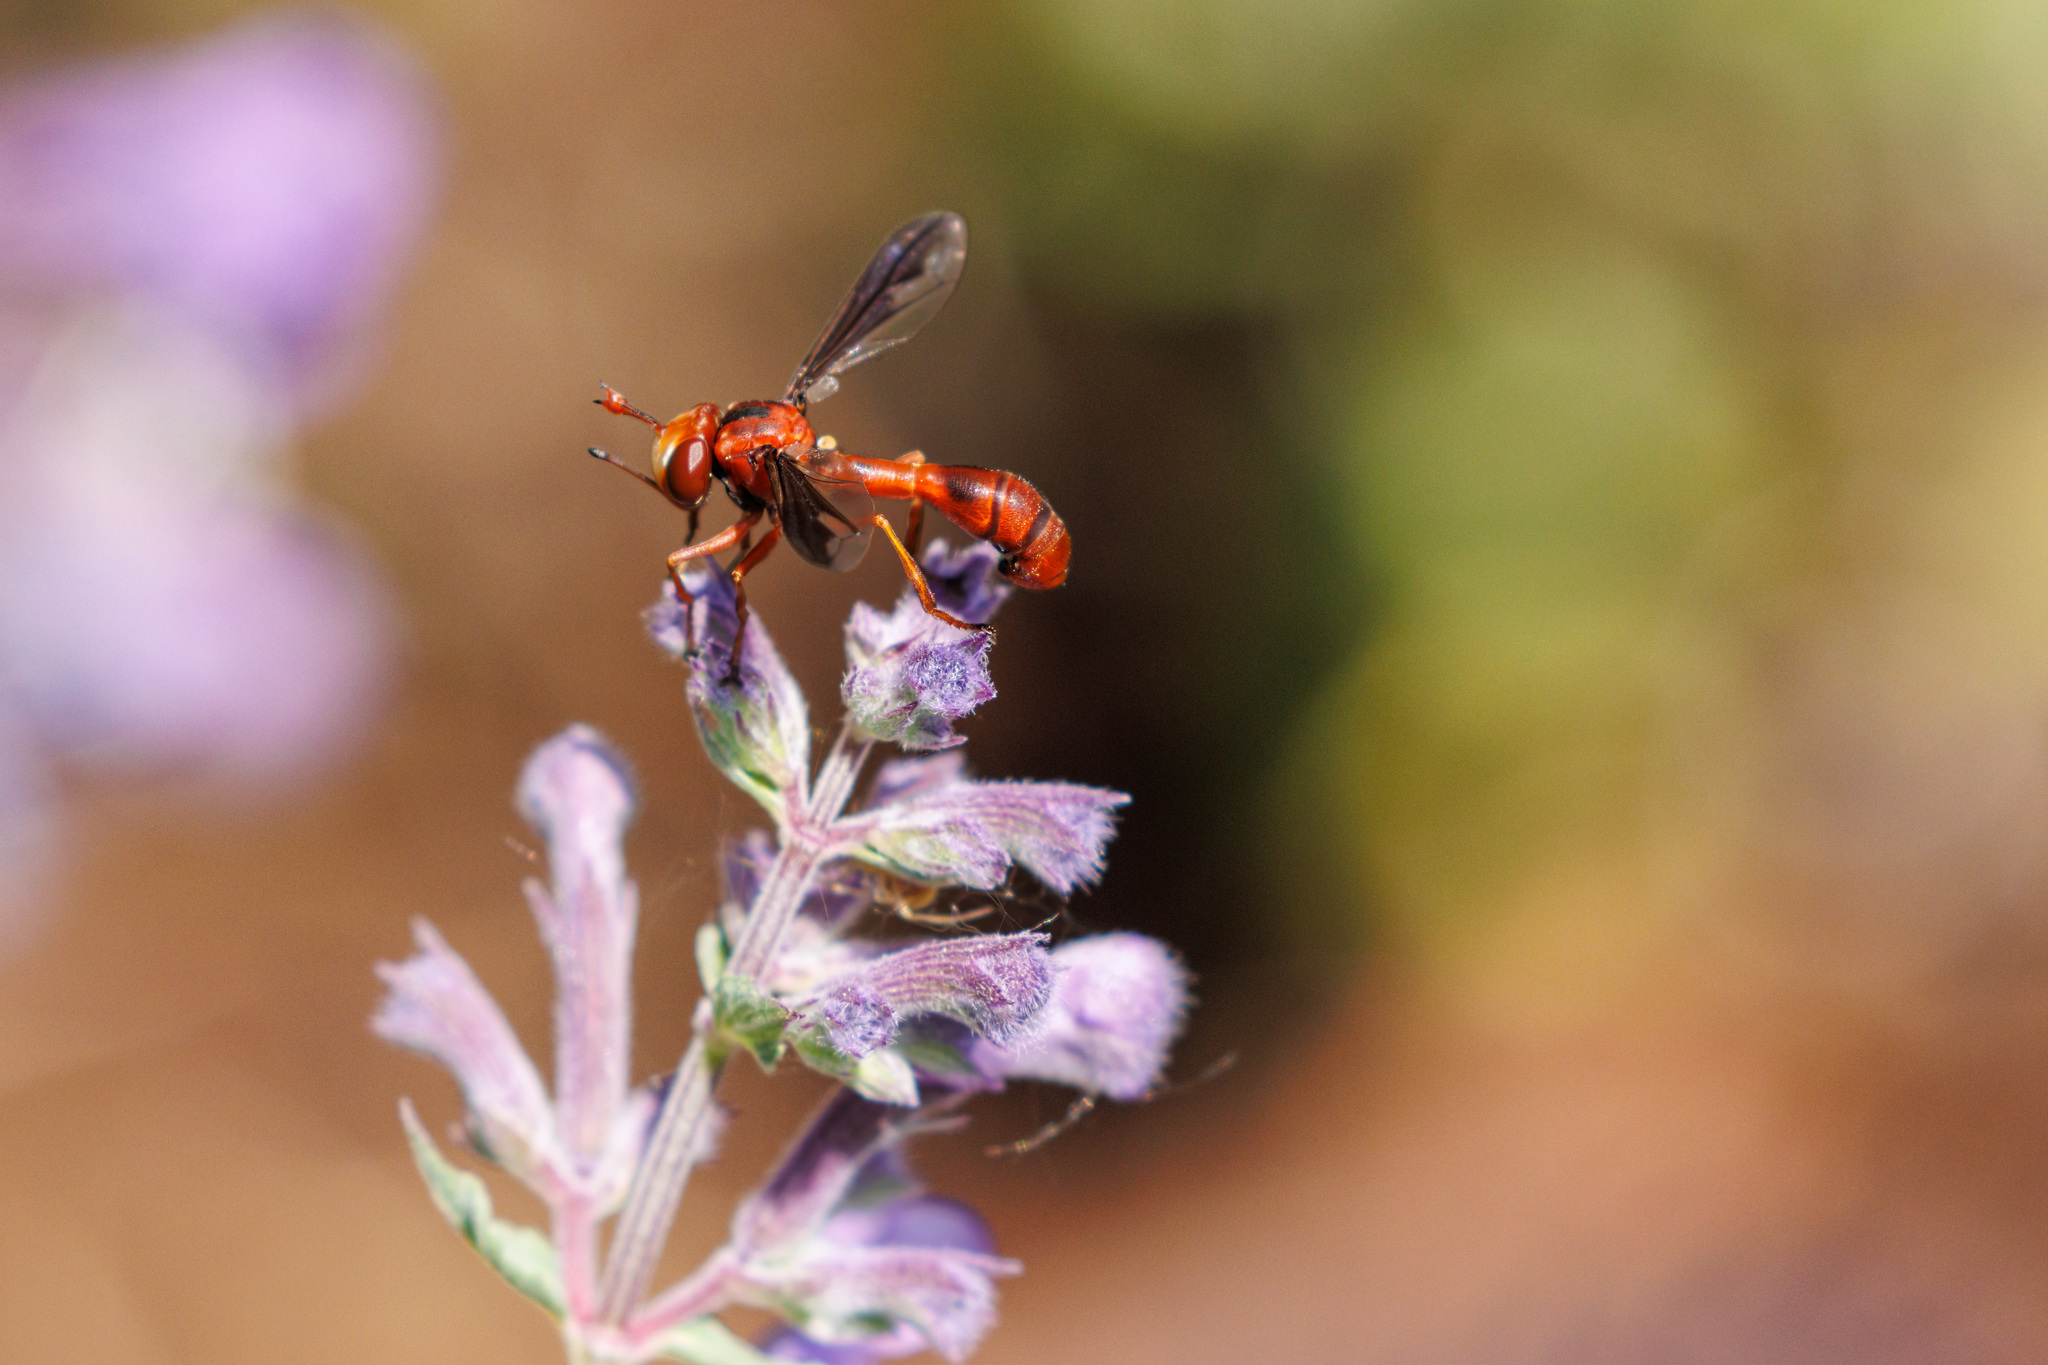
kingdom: Animalia
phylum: Arthropoda
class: Insecta
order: Diptera
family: Conopidae
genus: Physocephala
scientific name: Physocephala burgessi
